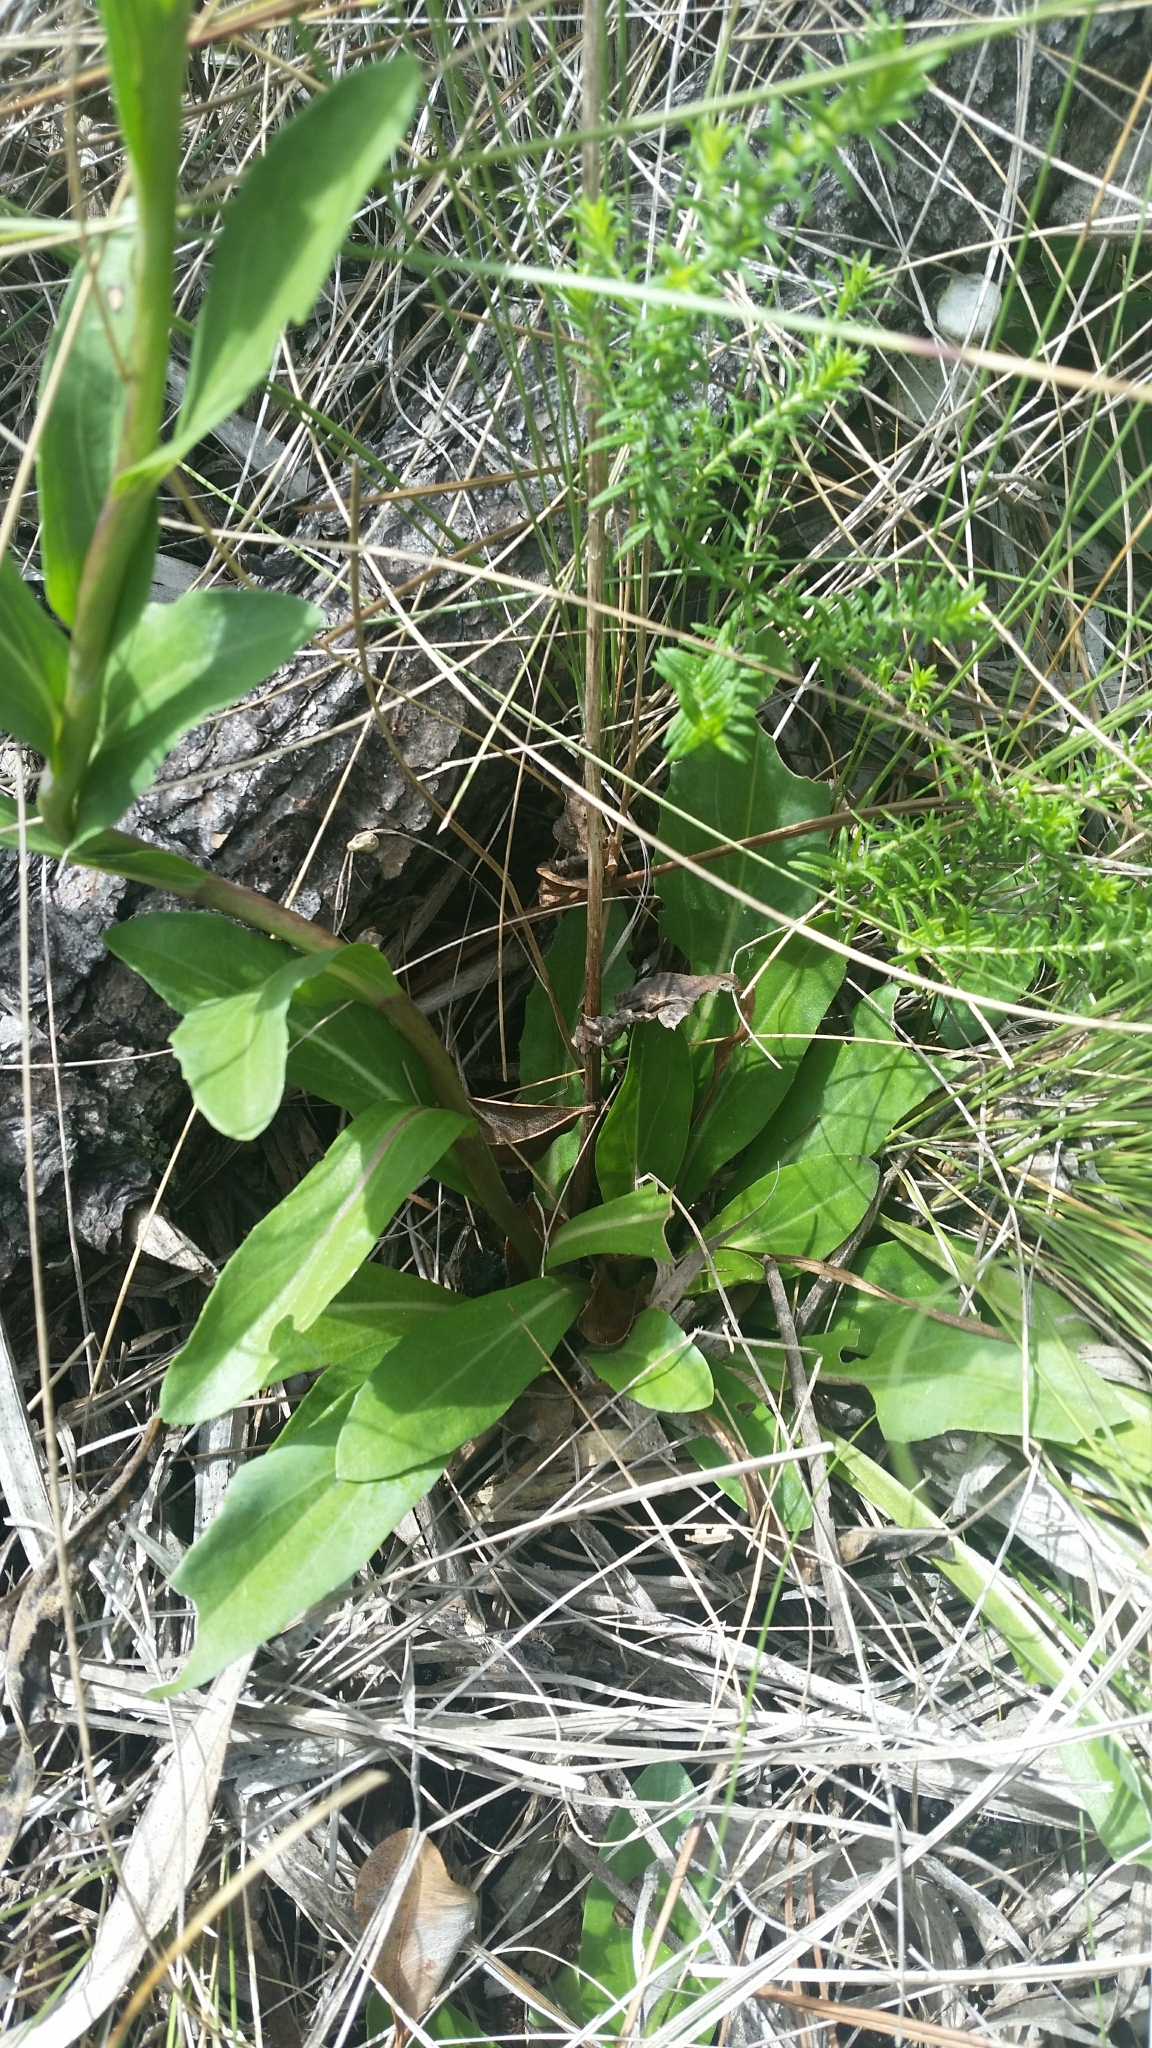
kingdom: Plantae
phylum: Tracheophyta
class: Magnoliopsida
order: Asterales
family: Asteraceae
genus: Carphephorus
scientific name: Carphephorus
